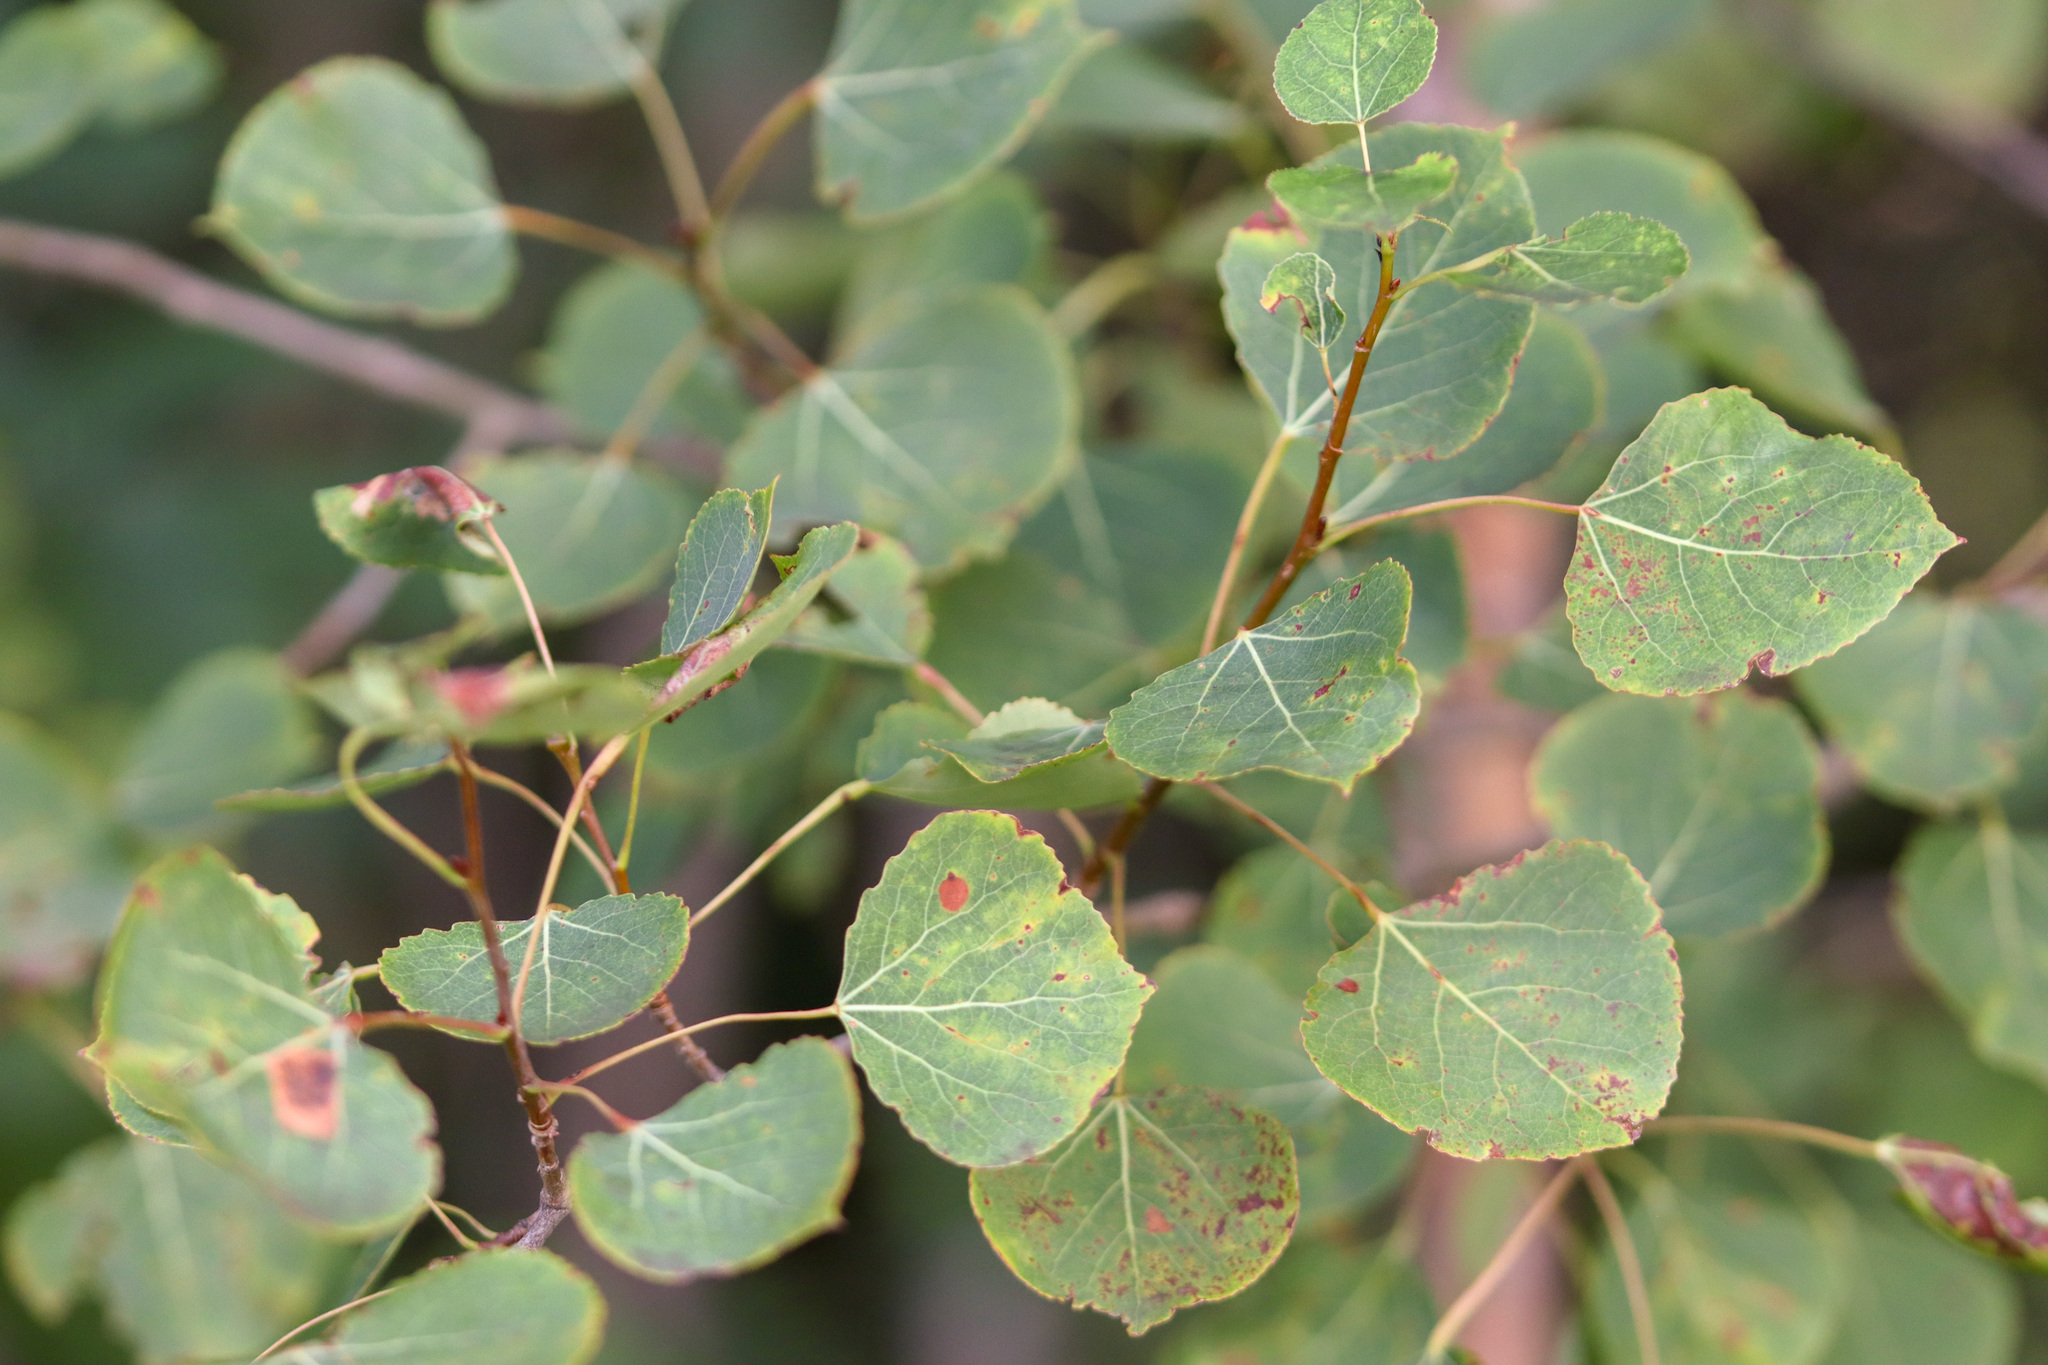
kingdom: Plantae
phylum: Tracheophyta
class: Magnoliopsida
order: Malpighiales
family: Salicaceae
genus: Populus
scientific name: Populus tremuloides
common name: Quaking aspen
